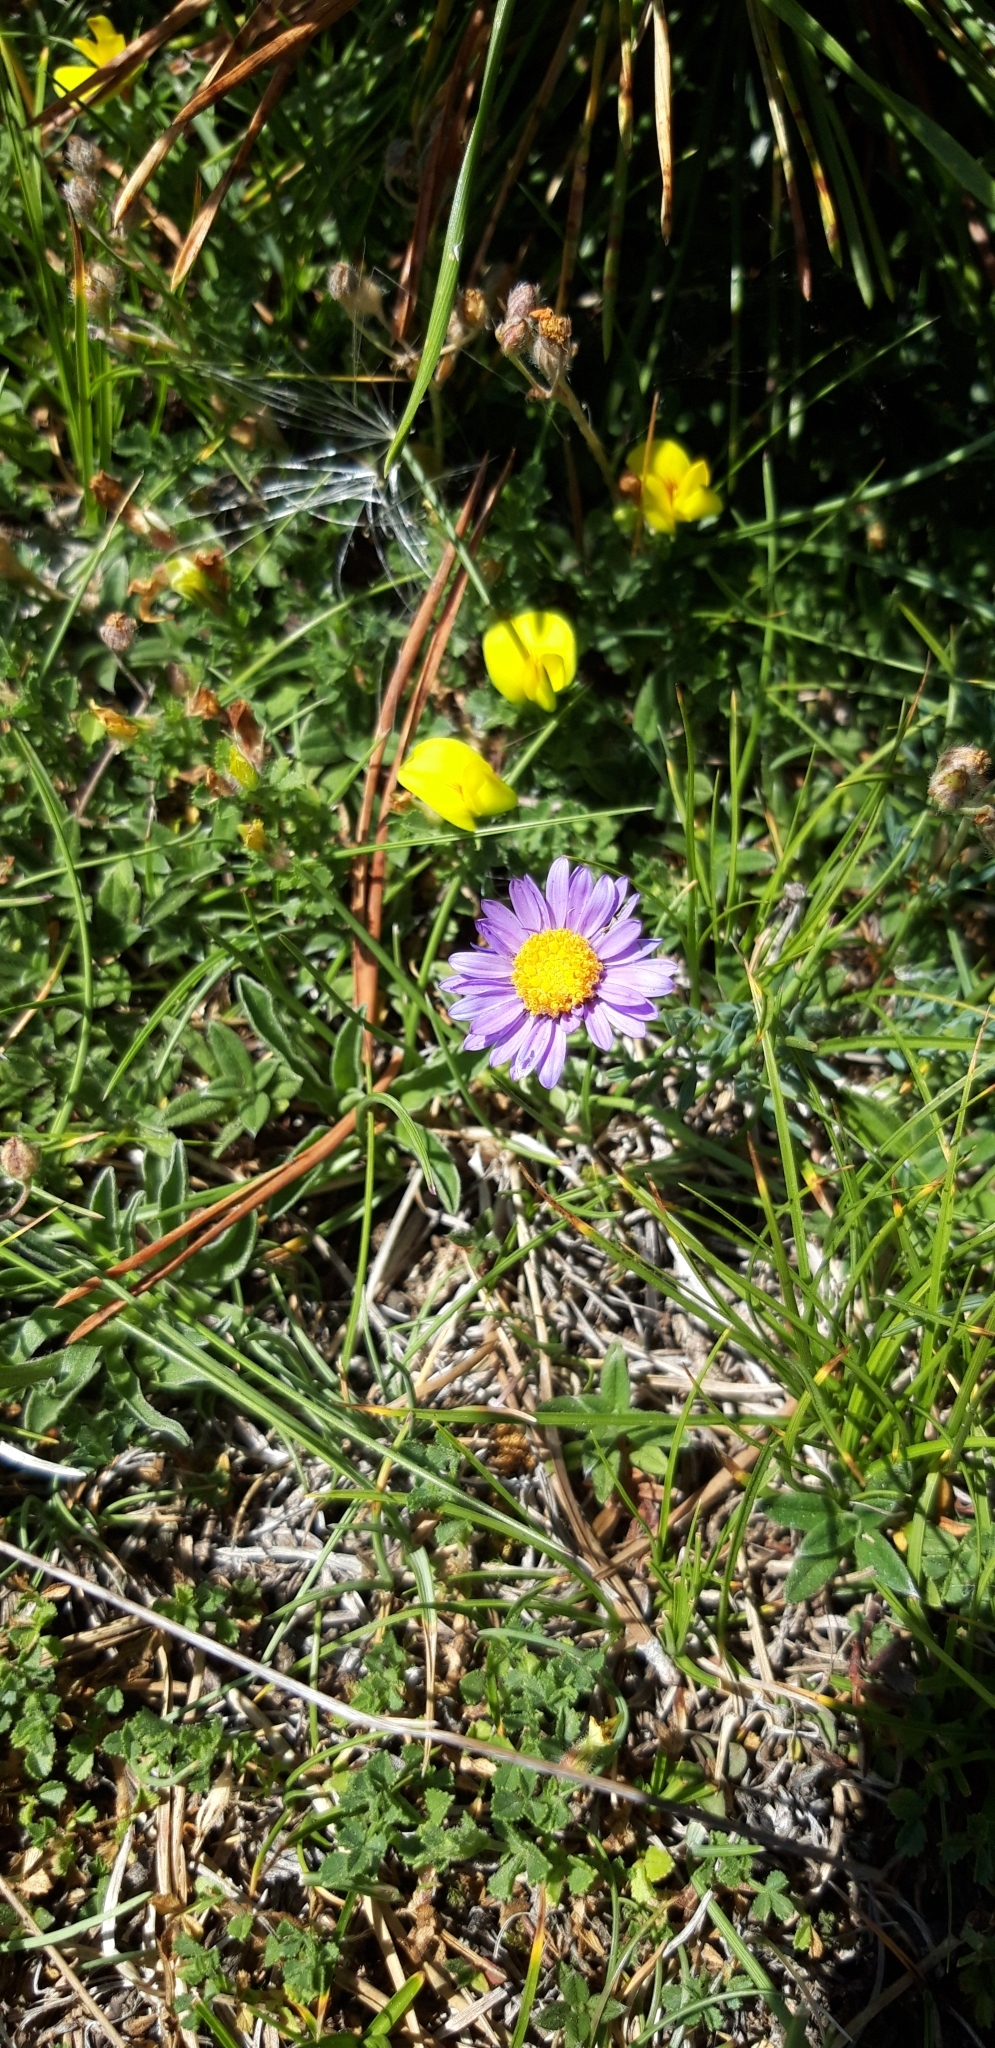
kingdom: Plantae
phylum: Tracheophyta
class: Magnoliopsida
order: Asterales
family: Asteraceae
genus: Aster
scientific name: Aster alpinus
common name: Alpine aster
